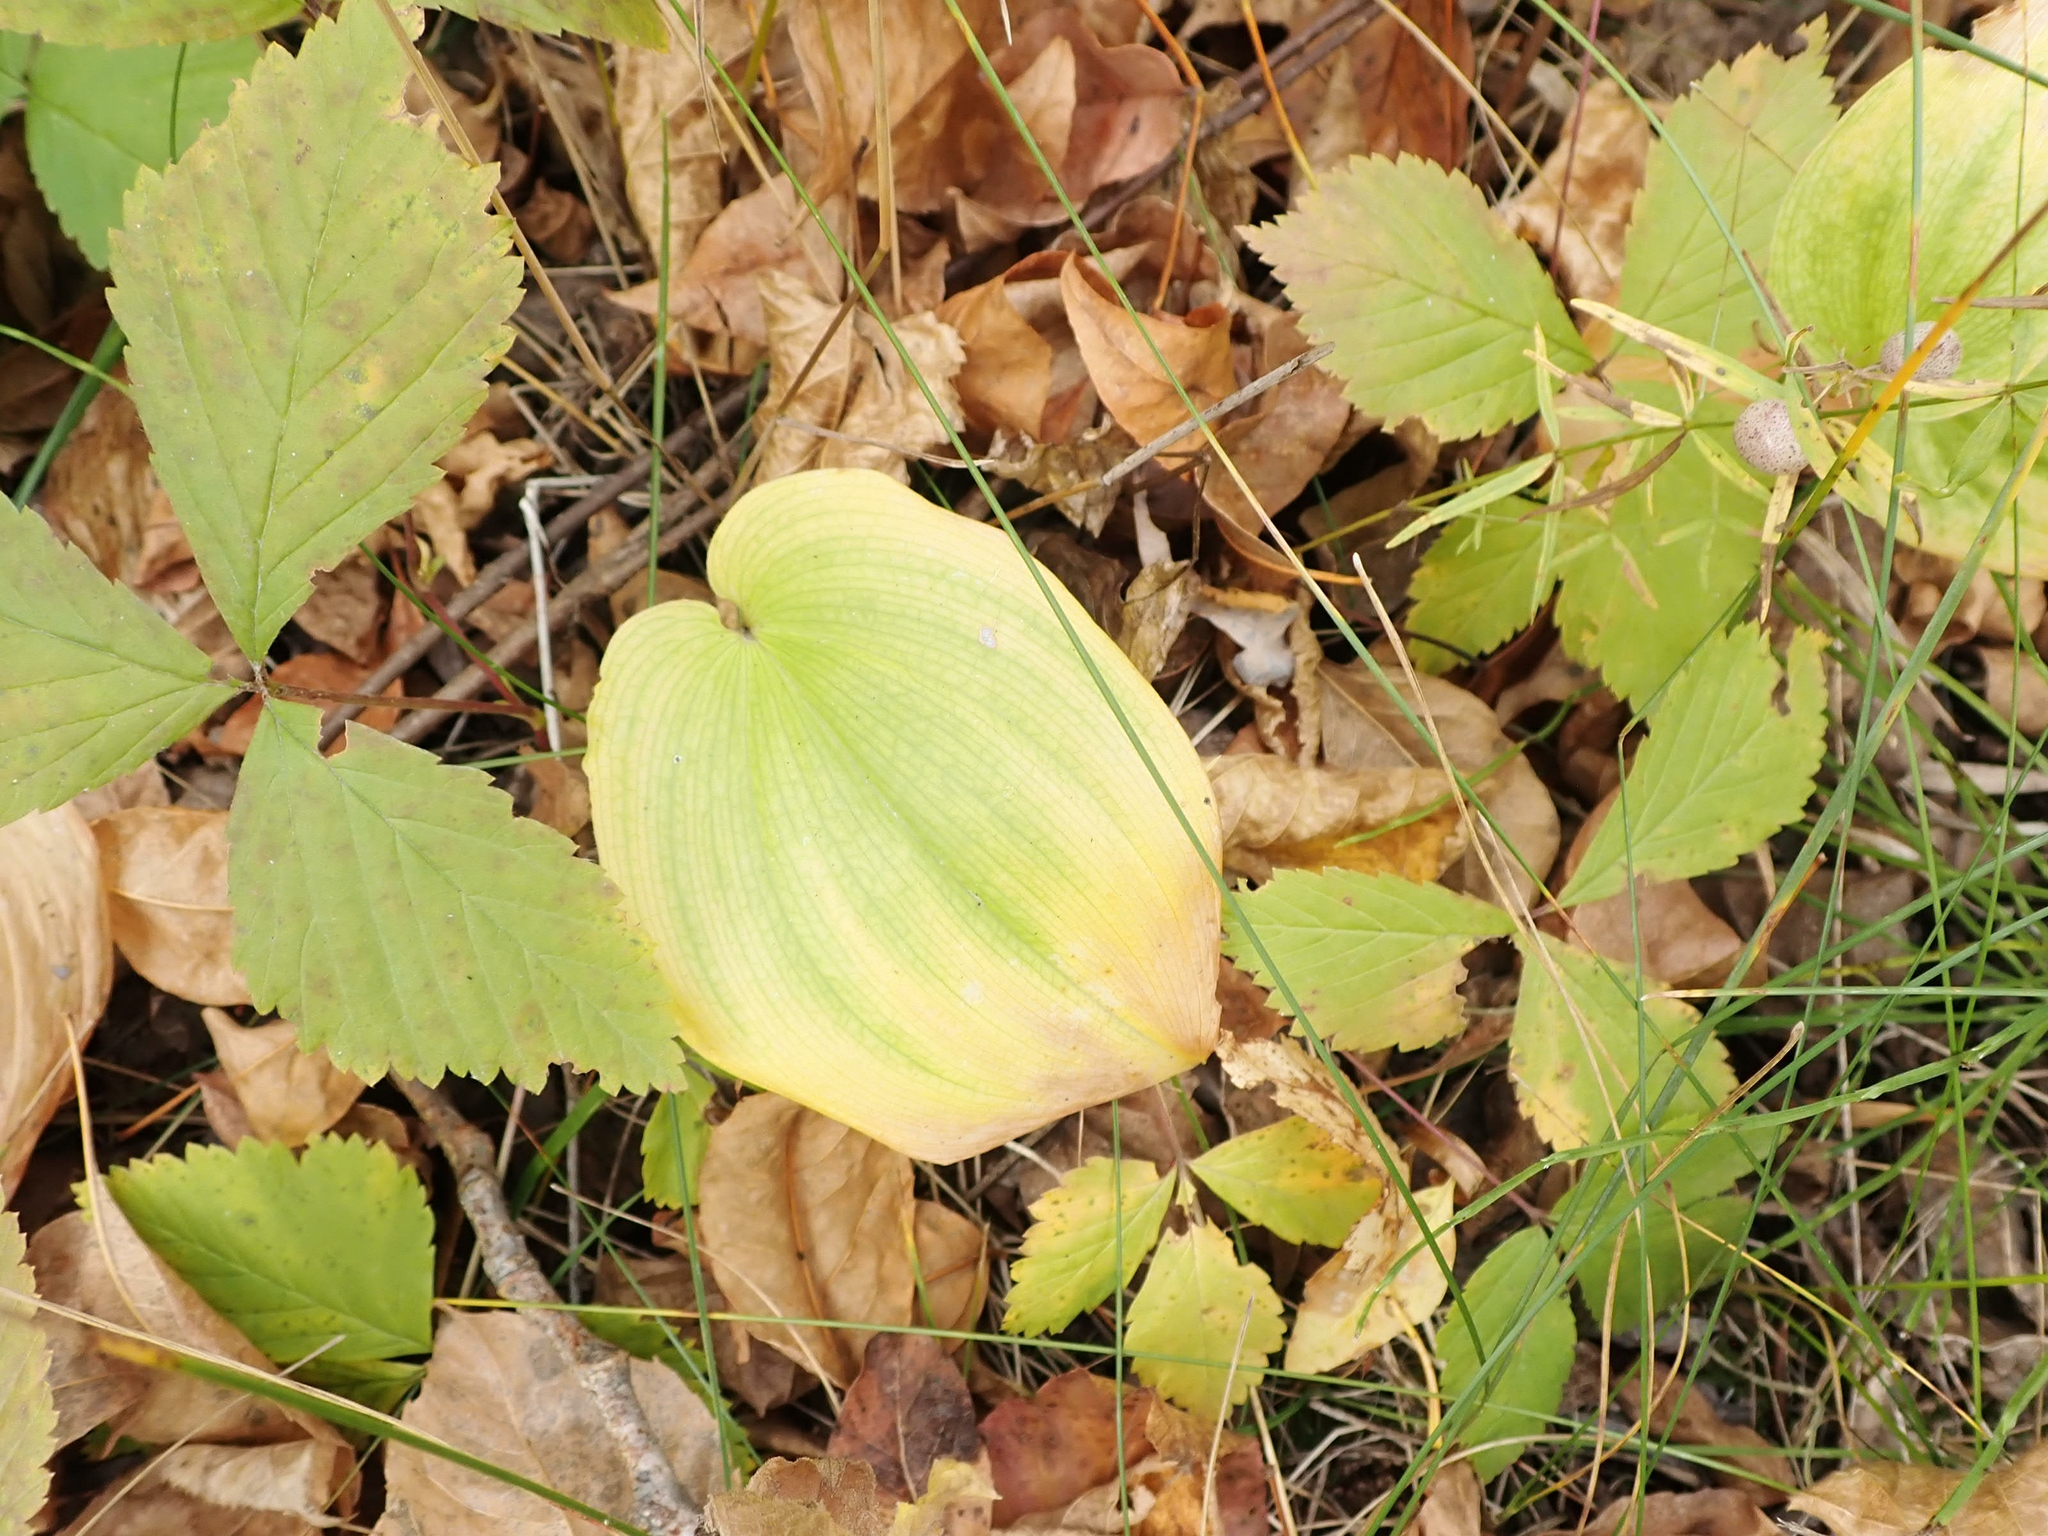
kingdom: Plantae
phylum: Tracheophyta
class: Liliopsida
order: Asparagales
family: Asparagaceae
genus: Maianthemum
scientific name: Maianthemum canadense
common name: False lily-of-the-valley
